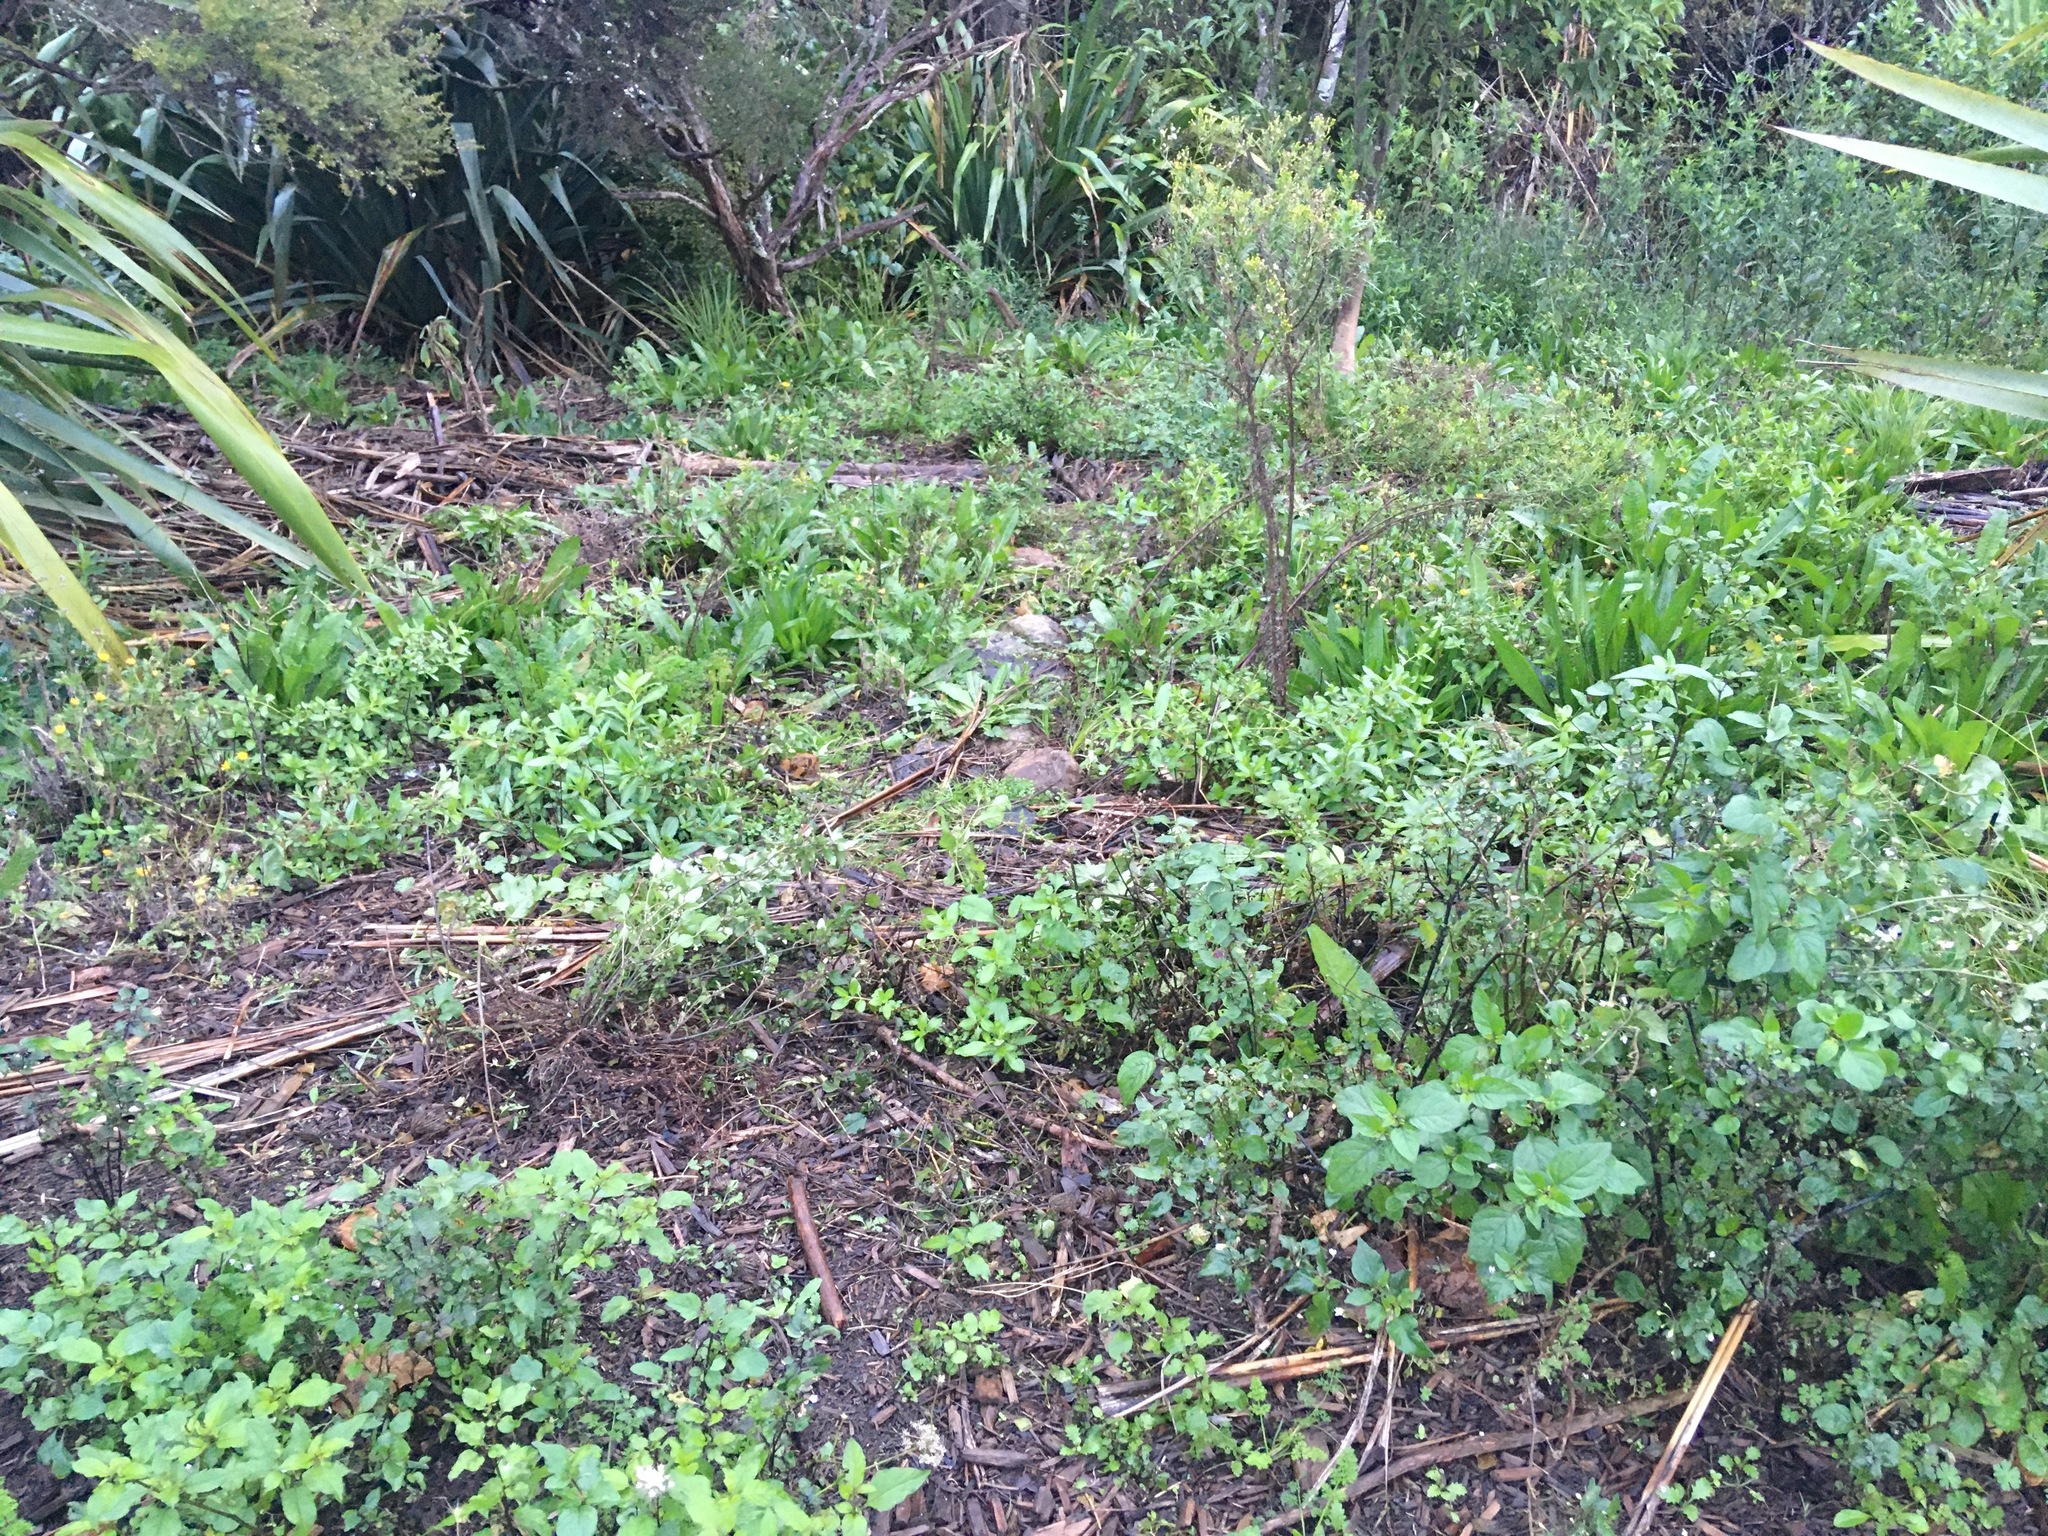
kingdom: Plantae
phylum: Tracheophyta
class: Magnoliopsida
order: Saxifragales
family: Haloragaceae
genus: Haloragis
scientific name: Haloragis erecta
